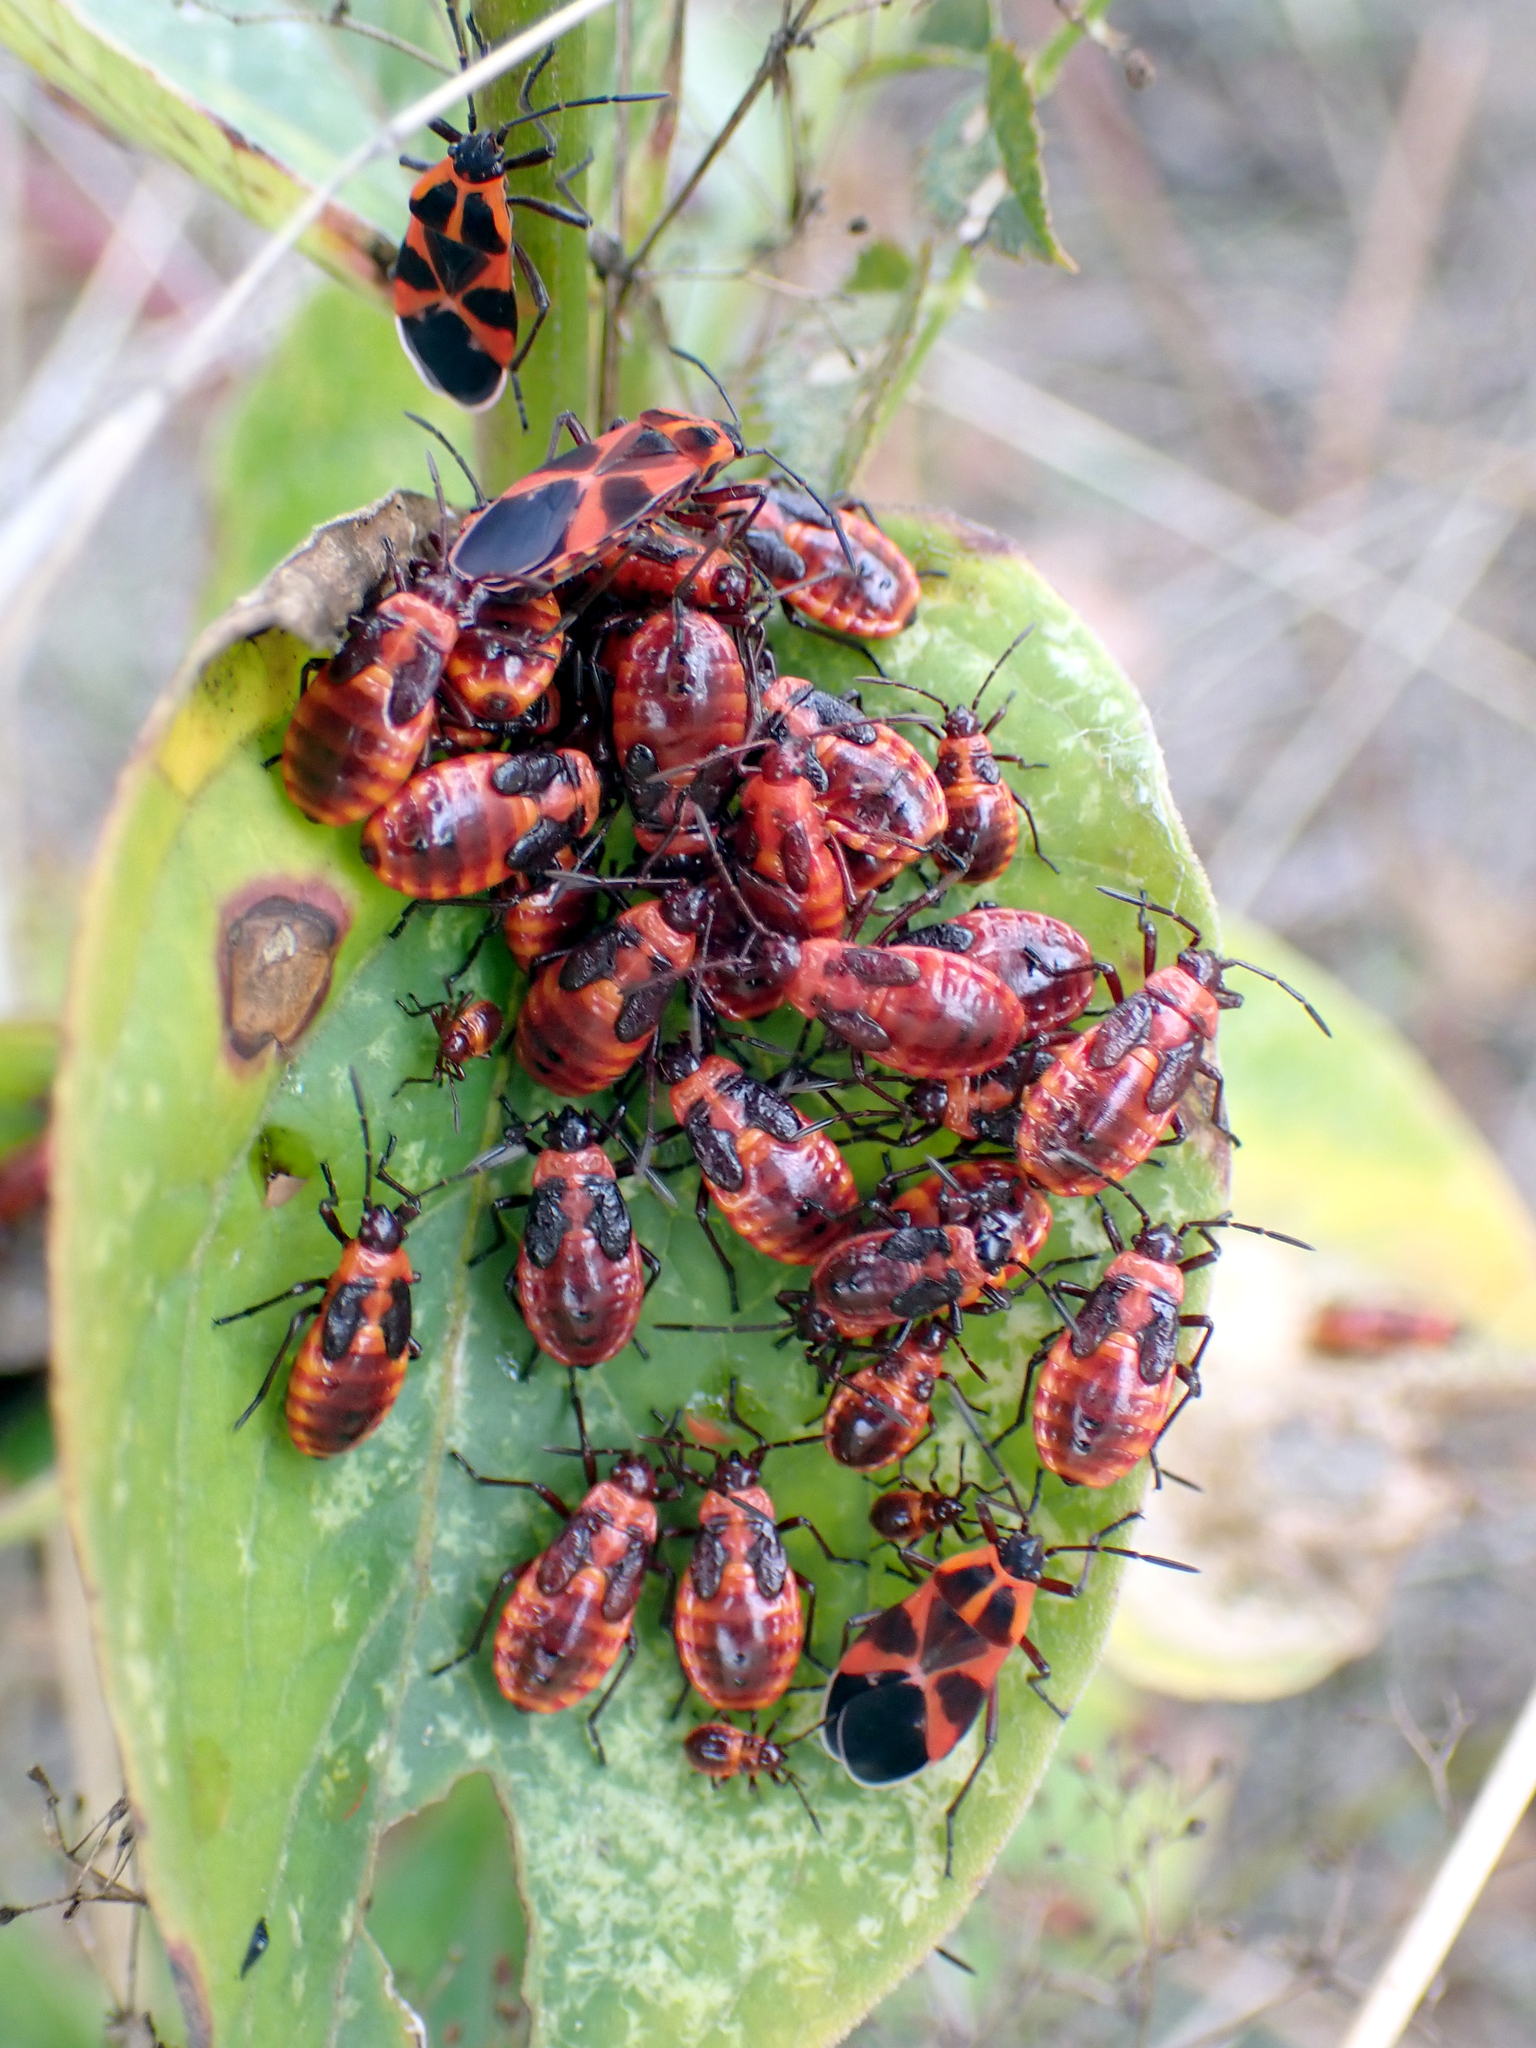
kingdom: Animalia
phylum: Arthropoda
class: Insecta
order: Hemiptera
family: Lygaeidae
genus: Tropidothorax
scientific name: Tropidothorax leucopterus
